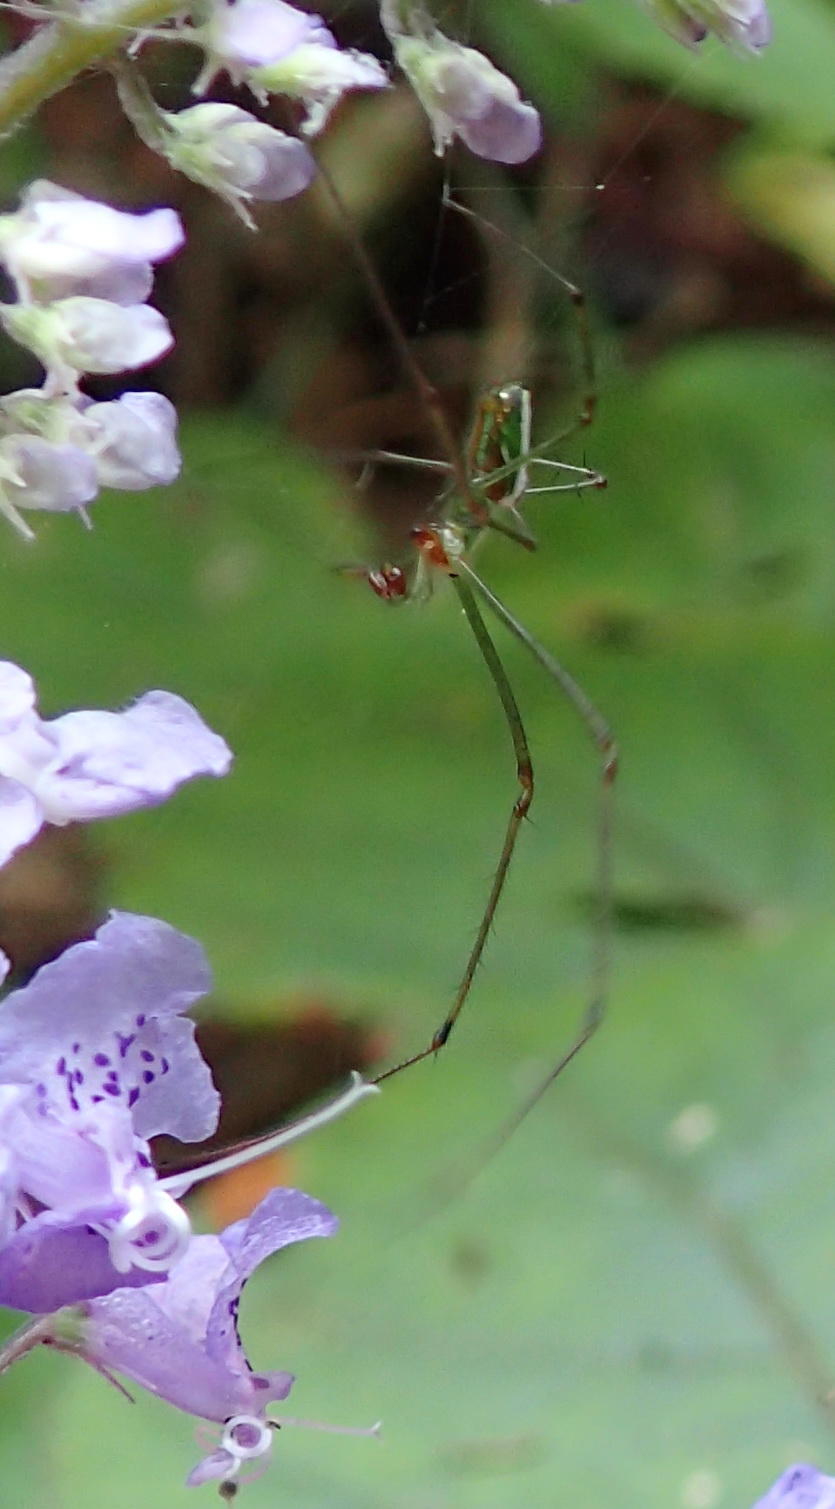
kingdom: Animalia
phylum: Arthropoda
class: Arachnida
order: Araneae
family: Tetragnathidae
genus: Leucauge
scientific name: Leucauge auronotum
